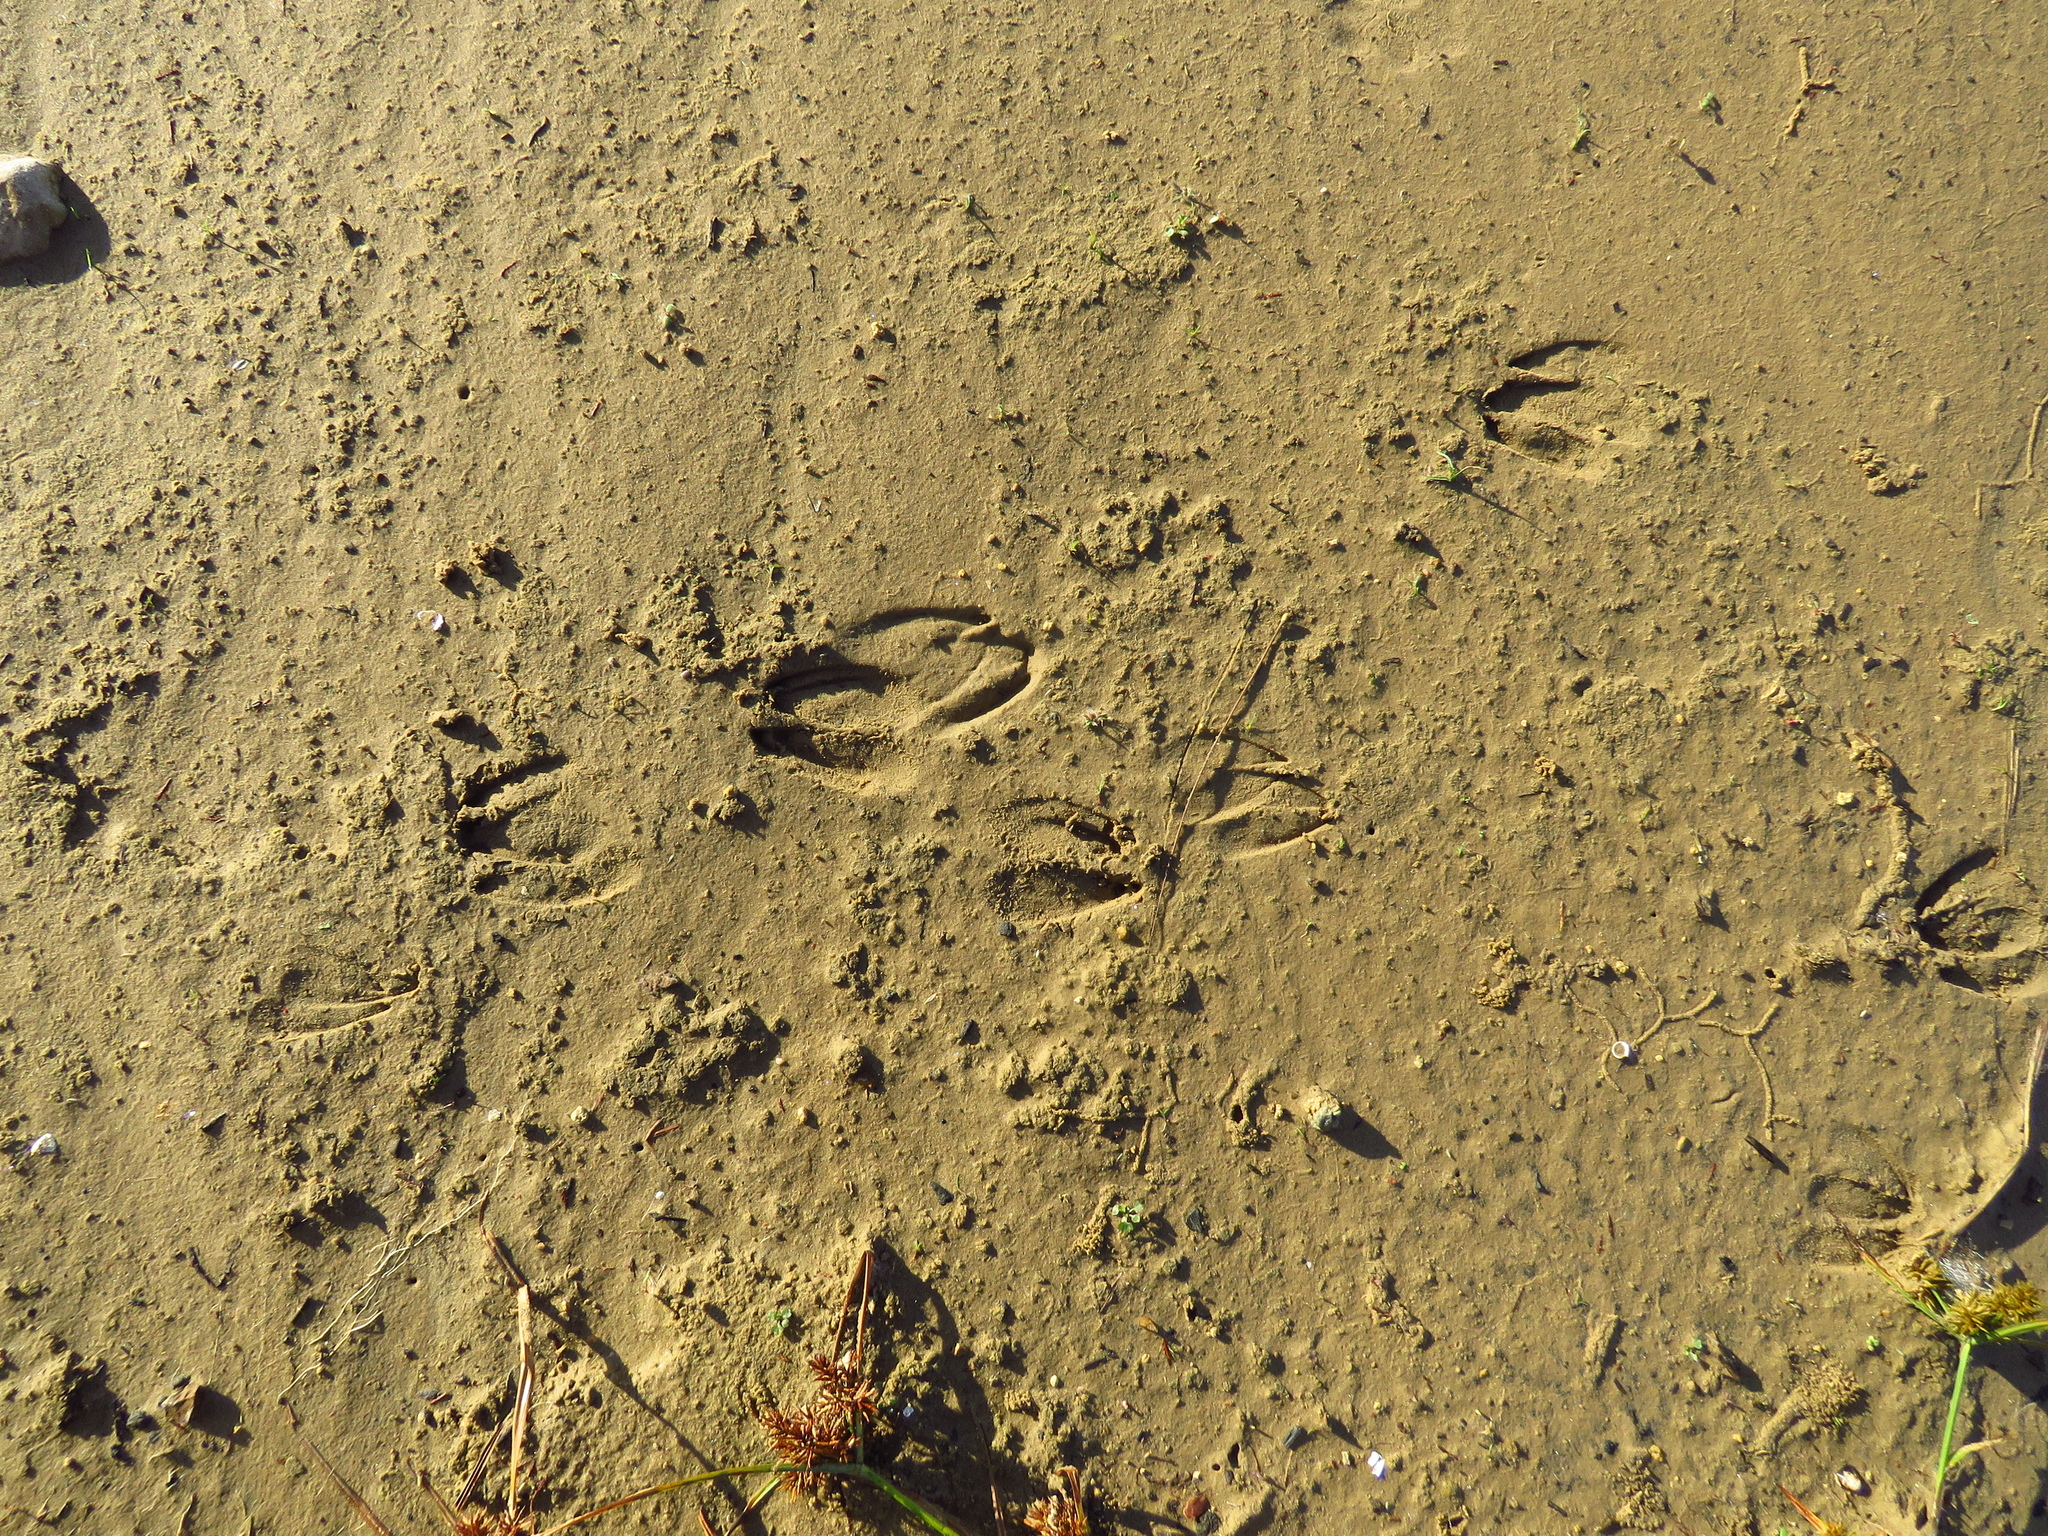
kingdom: Animalia
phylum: Chordata
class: Mammalia
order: Artiodactyla
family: Cervidae
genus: Odocoileus
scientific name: Odocoileus virginianus
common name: White-tailed deer
